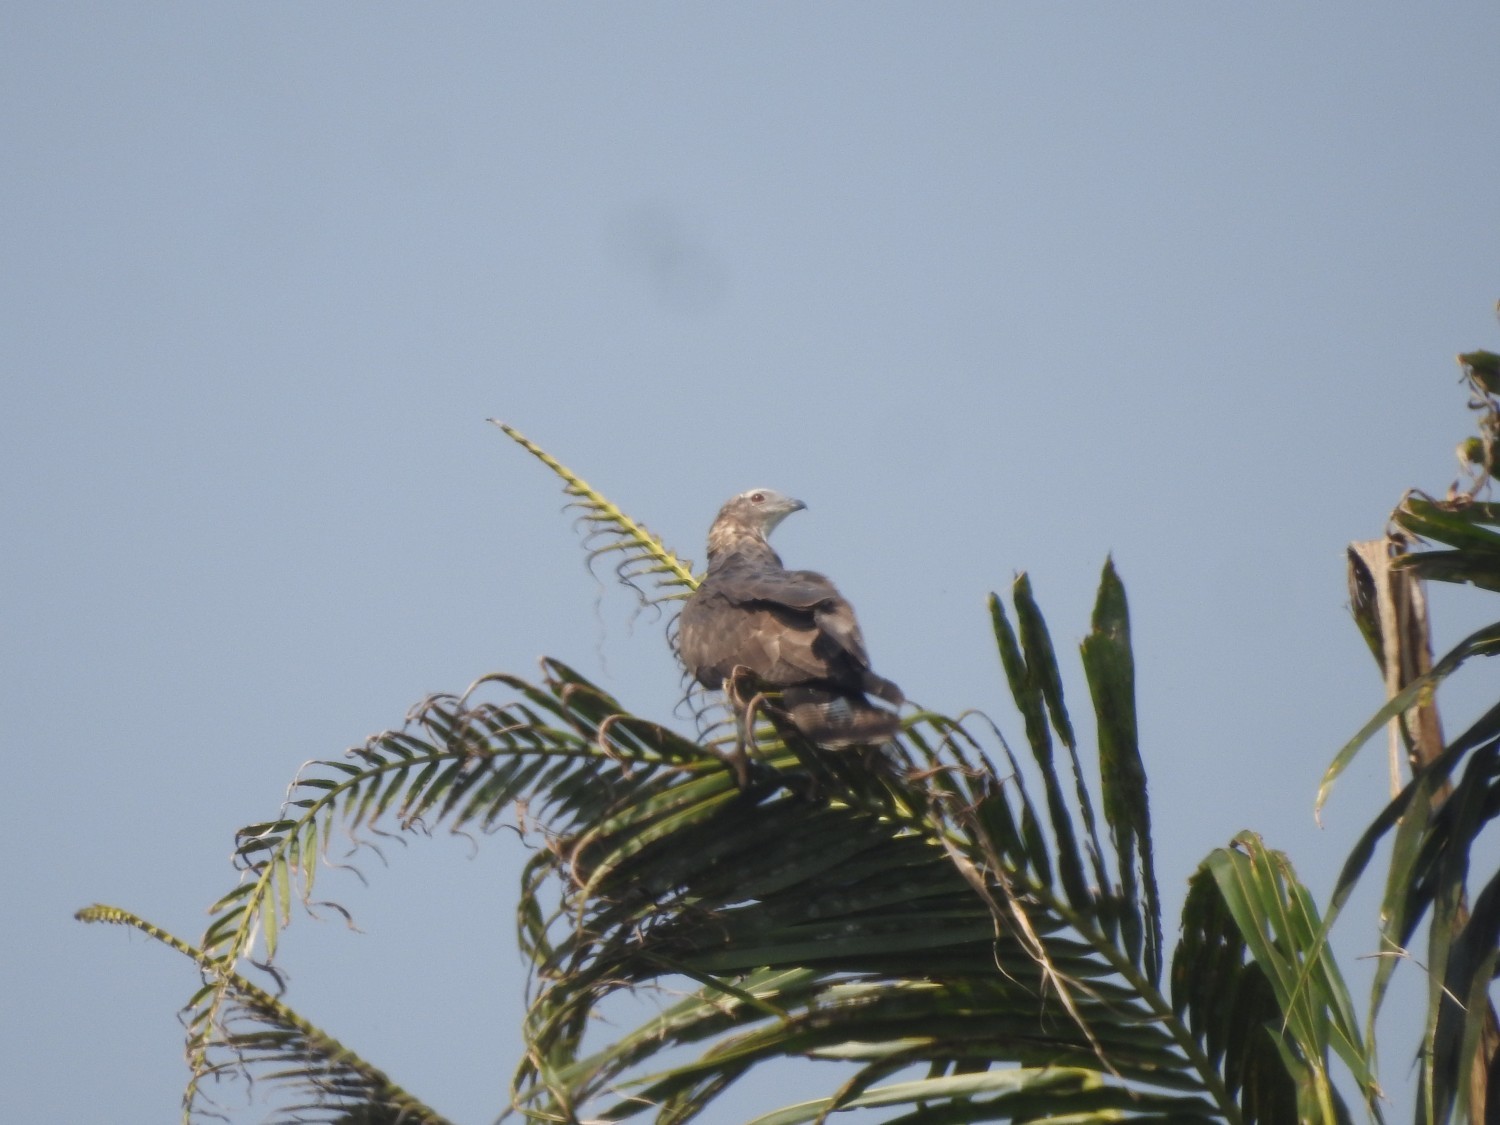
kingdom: Animalia
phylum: Chordata
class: Aves
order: Accipitriformes
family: Accipitridae
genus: Pernis
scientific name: Pernis ptilorhynchus
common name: Crested honey buzzard
